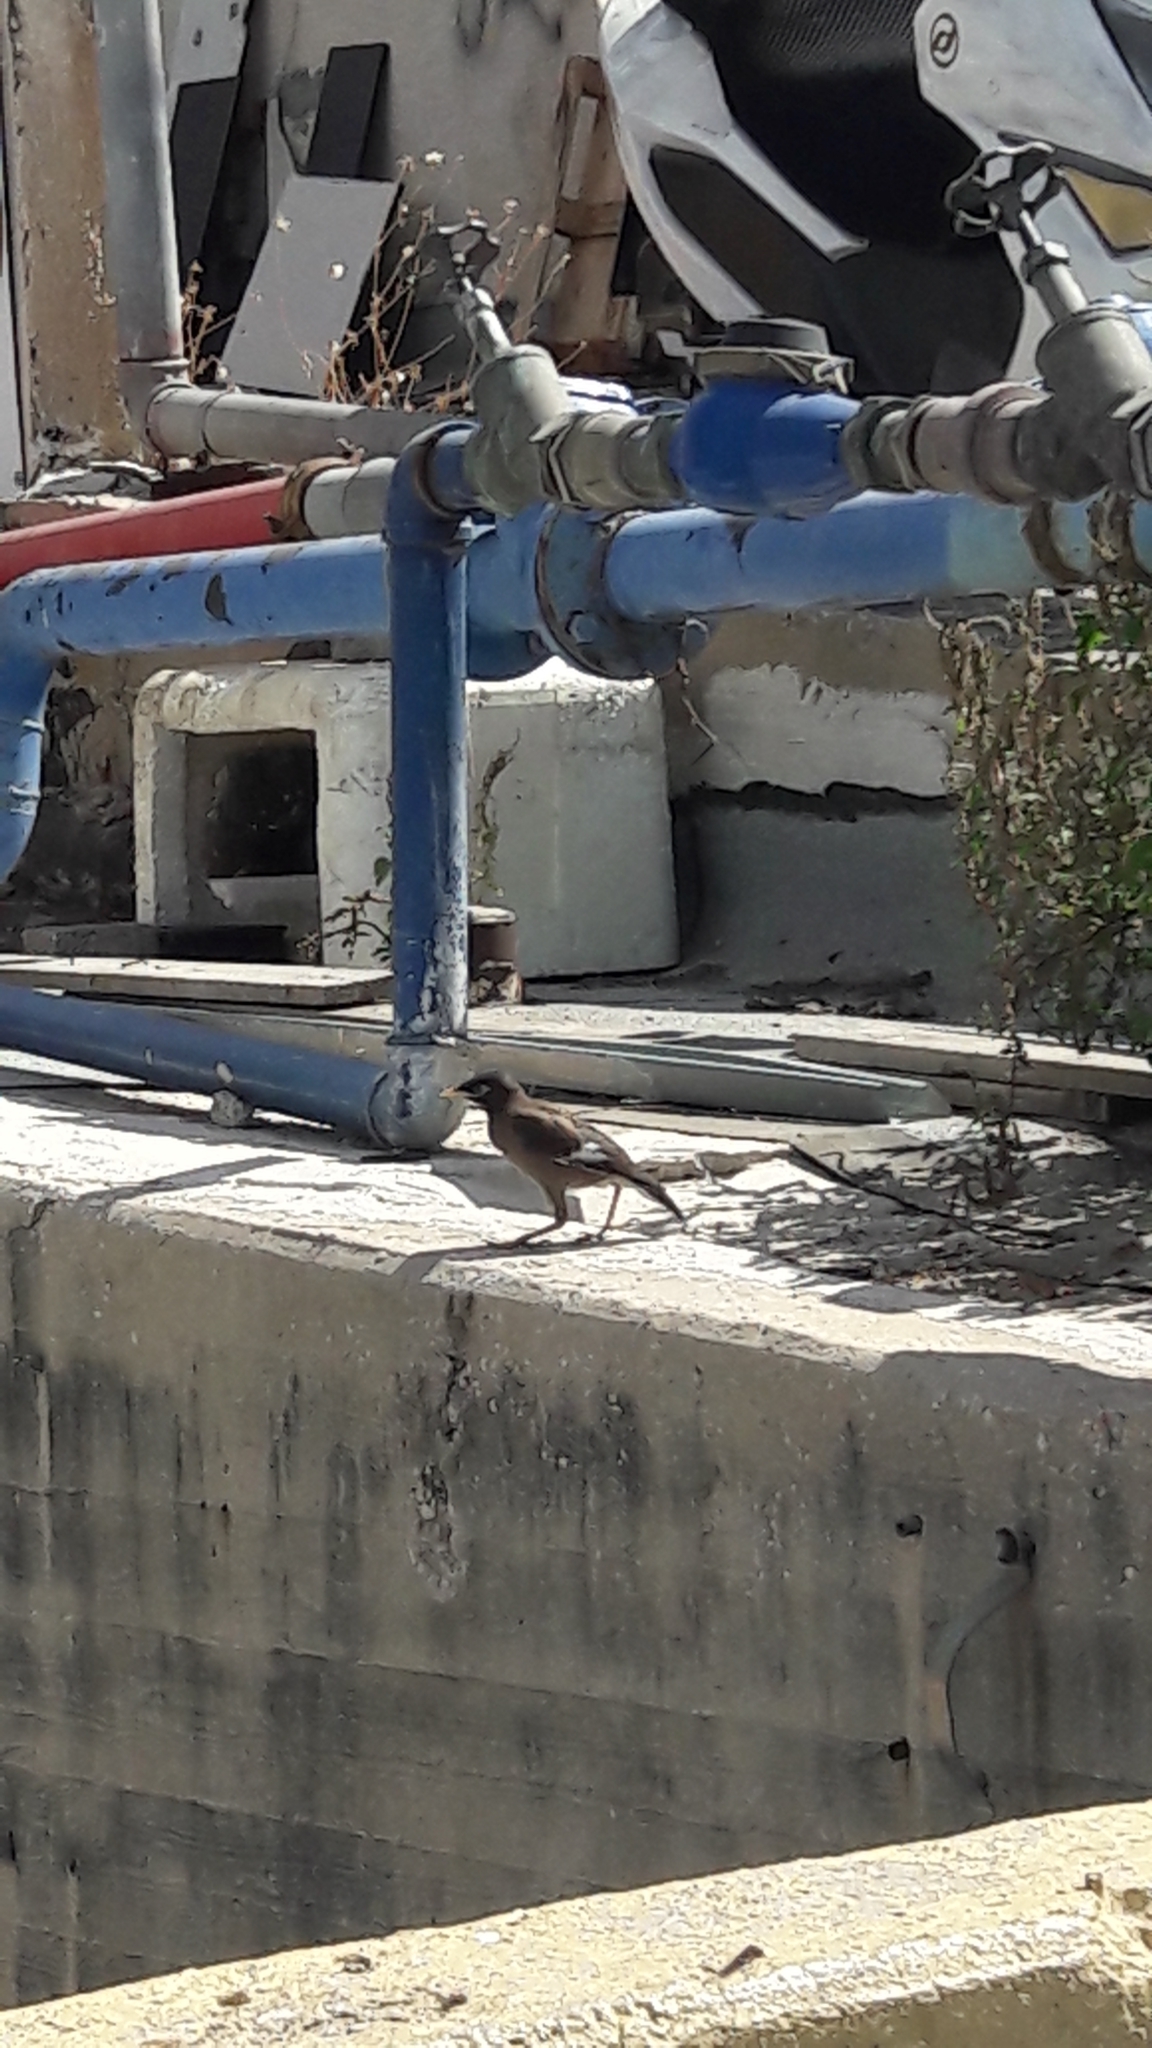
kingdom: Animalia
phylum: Chordata
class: Aves
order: Passeriformes
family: Sturnidae
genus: Acridotheres
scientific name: Acridotheres tristis
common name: Common myna
